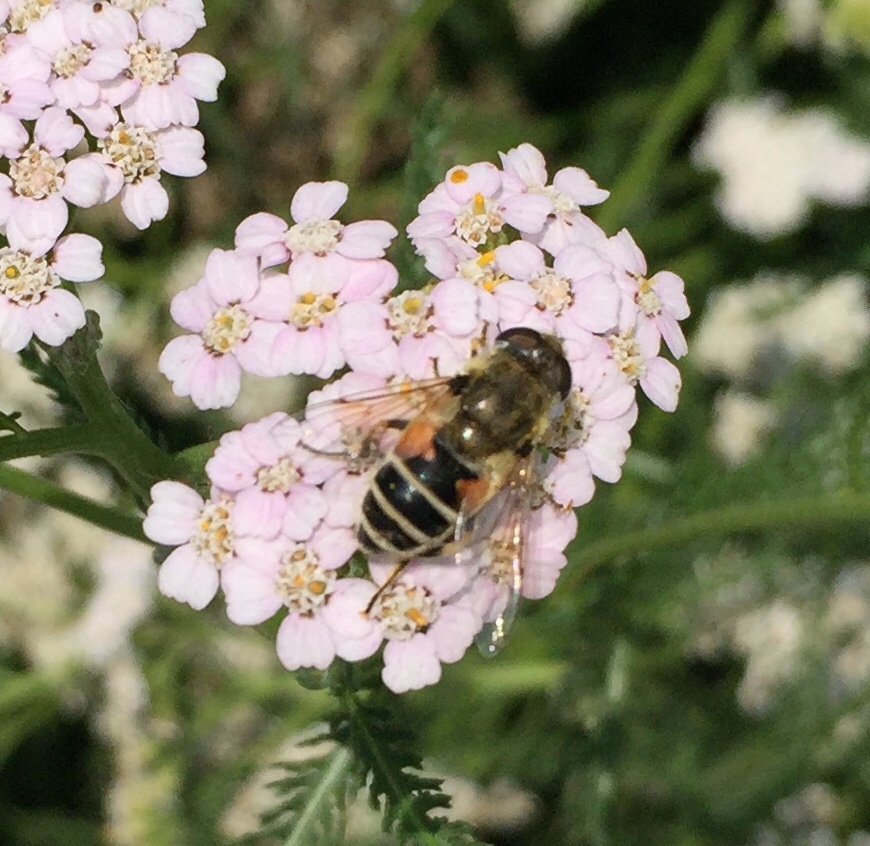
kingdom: Animalia
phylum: Arthropoda
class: Insecta
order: Diptera
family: Syrphidae
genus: Eristalis
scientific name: Eristalis arbustorum
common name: Hover fly
